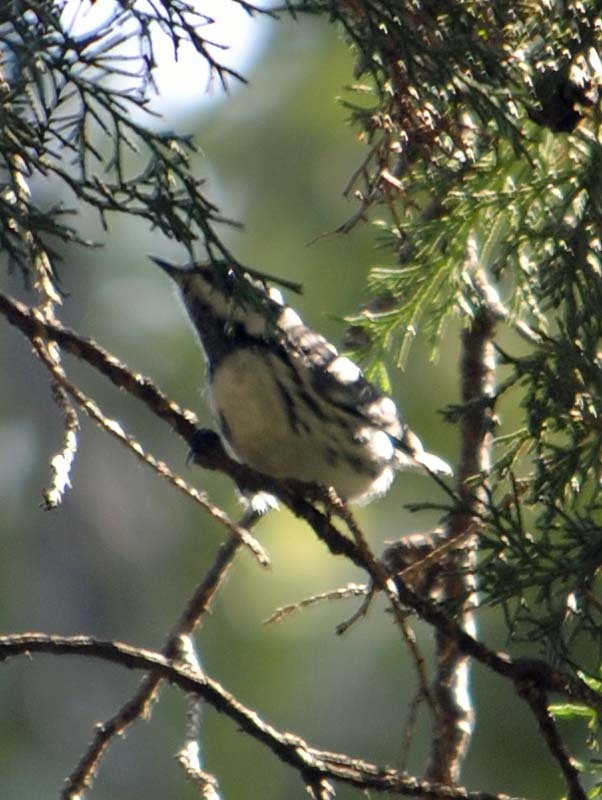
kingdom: Animalia
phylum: Chordata
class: Aves
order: Passeriformes
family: Parulidae
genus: Setophaga
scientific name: Setophaga nigrescens
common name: Black-throated gray warbler
